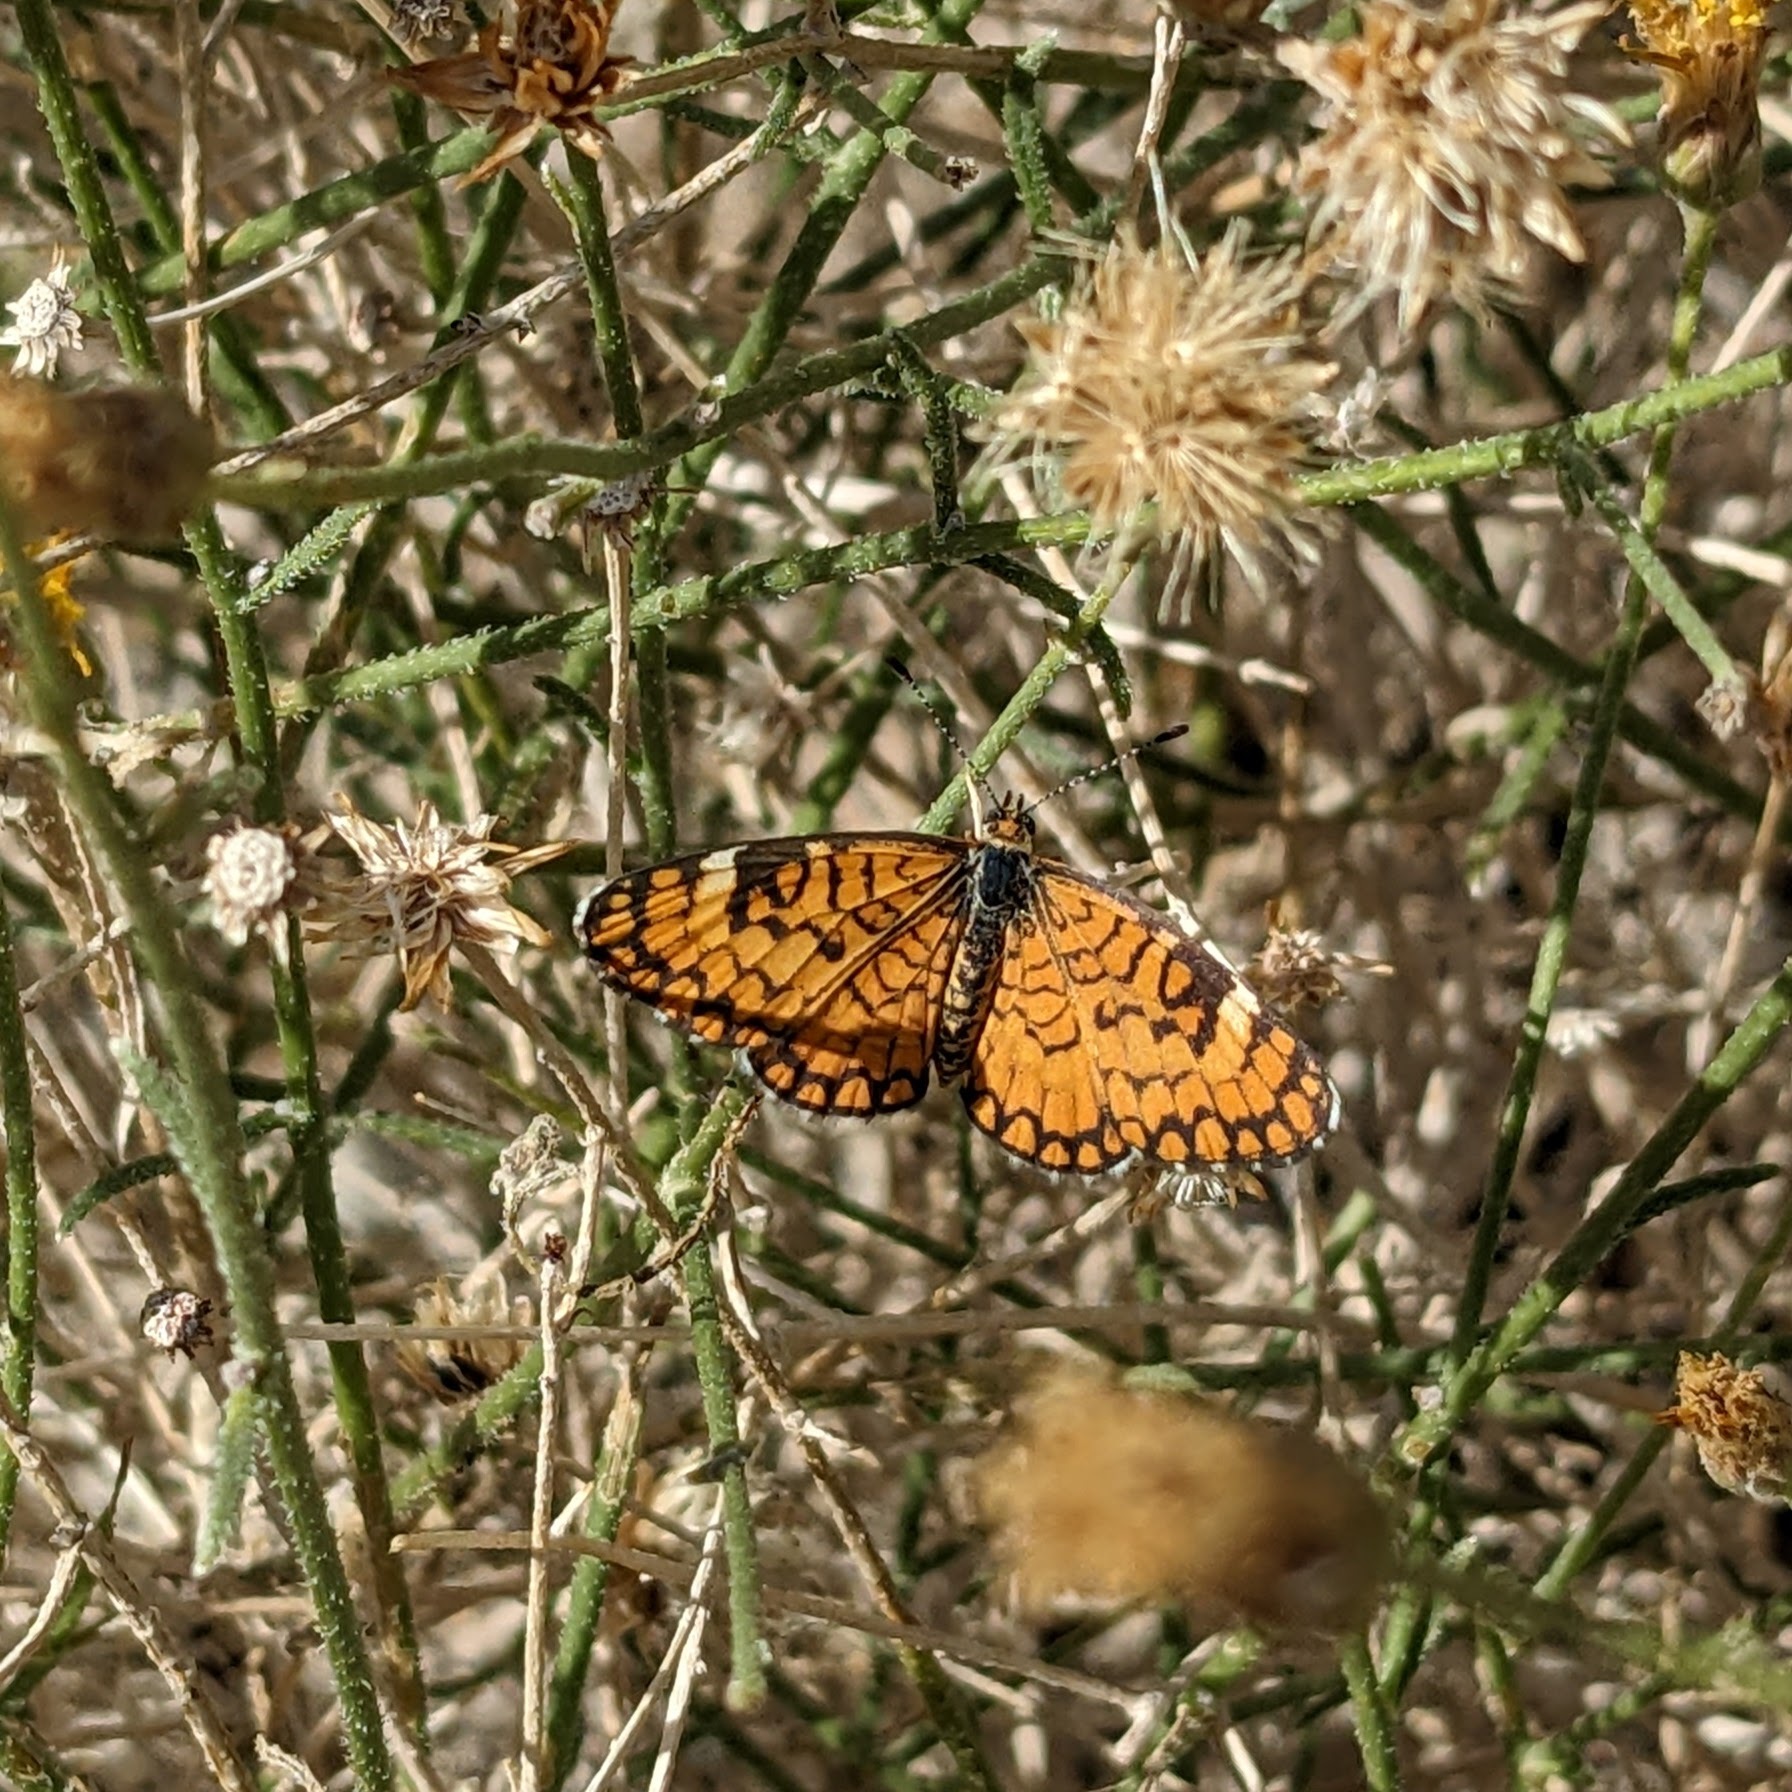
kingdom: Animalia
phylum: Arthropoda
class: Insecta
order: Lepidoptera
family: Nymphalidae
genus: Dymasia
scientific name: Dymasia dymas
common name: Tiny checkerspot
